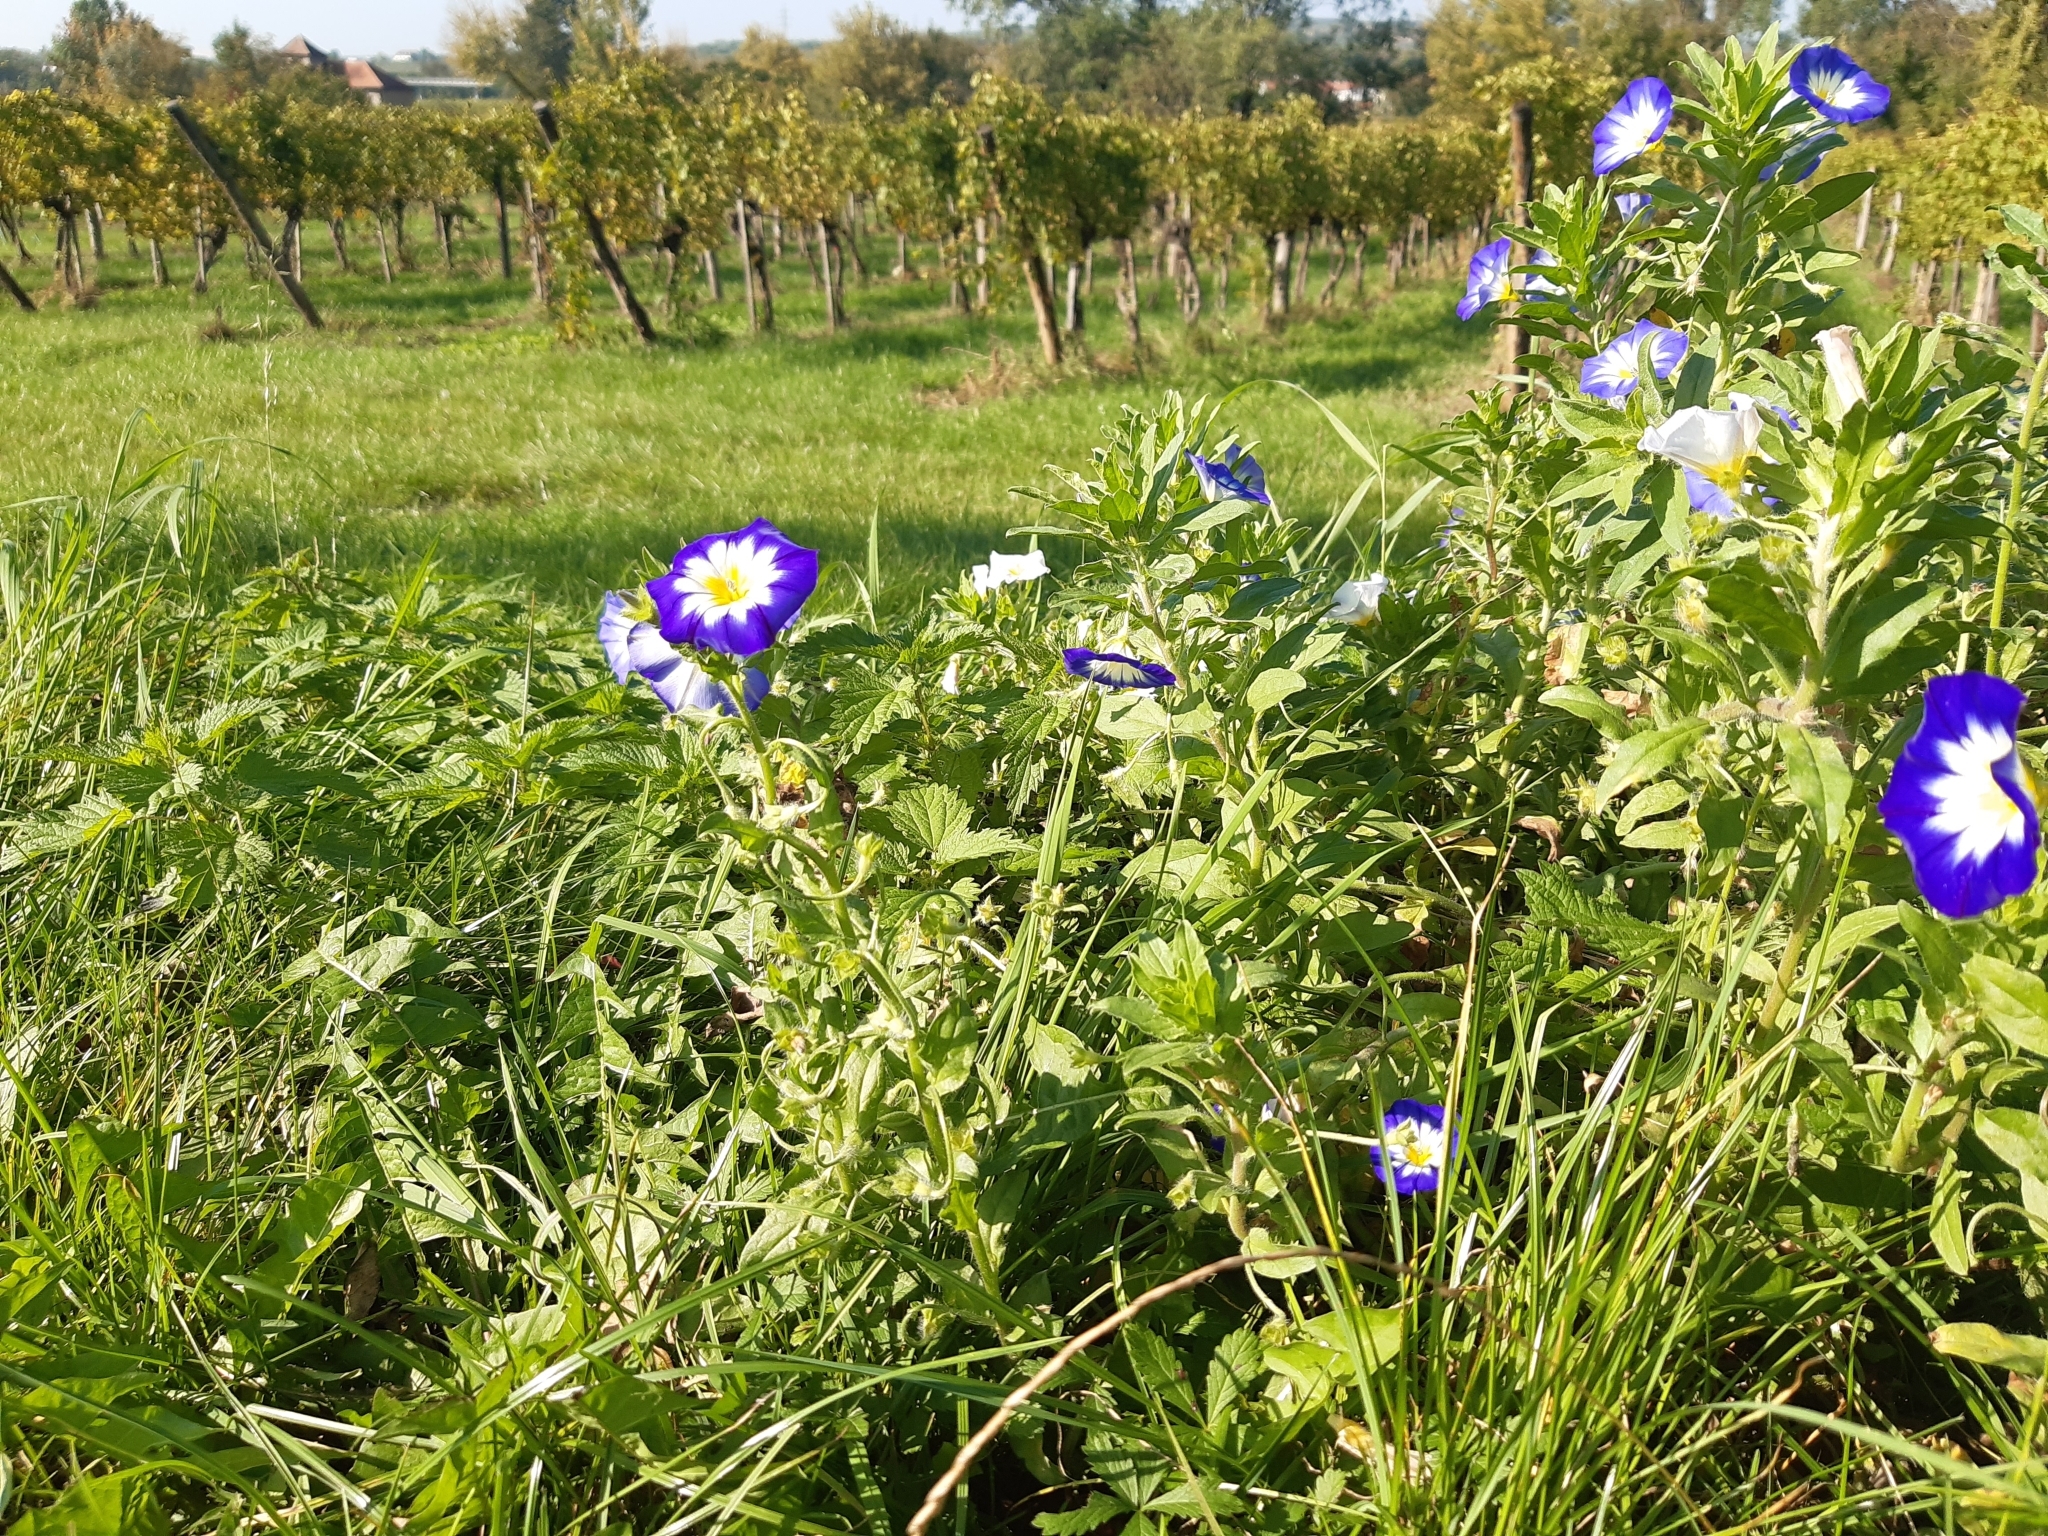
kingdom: Plantae
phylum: Tracheophyta
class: Magnoliopsida
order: Solanales
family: Convolvulaceae
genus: Convolvulus
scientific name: Convolvulus tricolor
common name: Dwarf morning-glory
